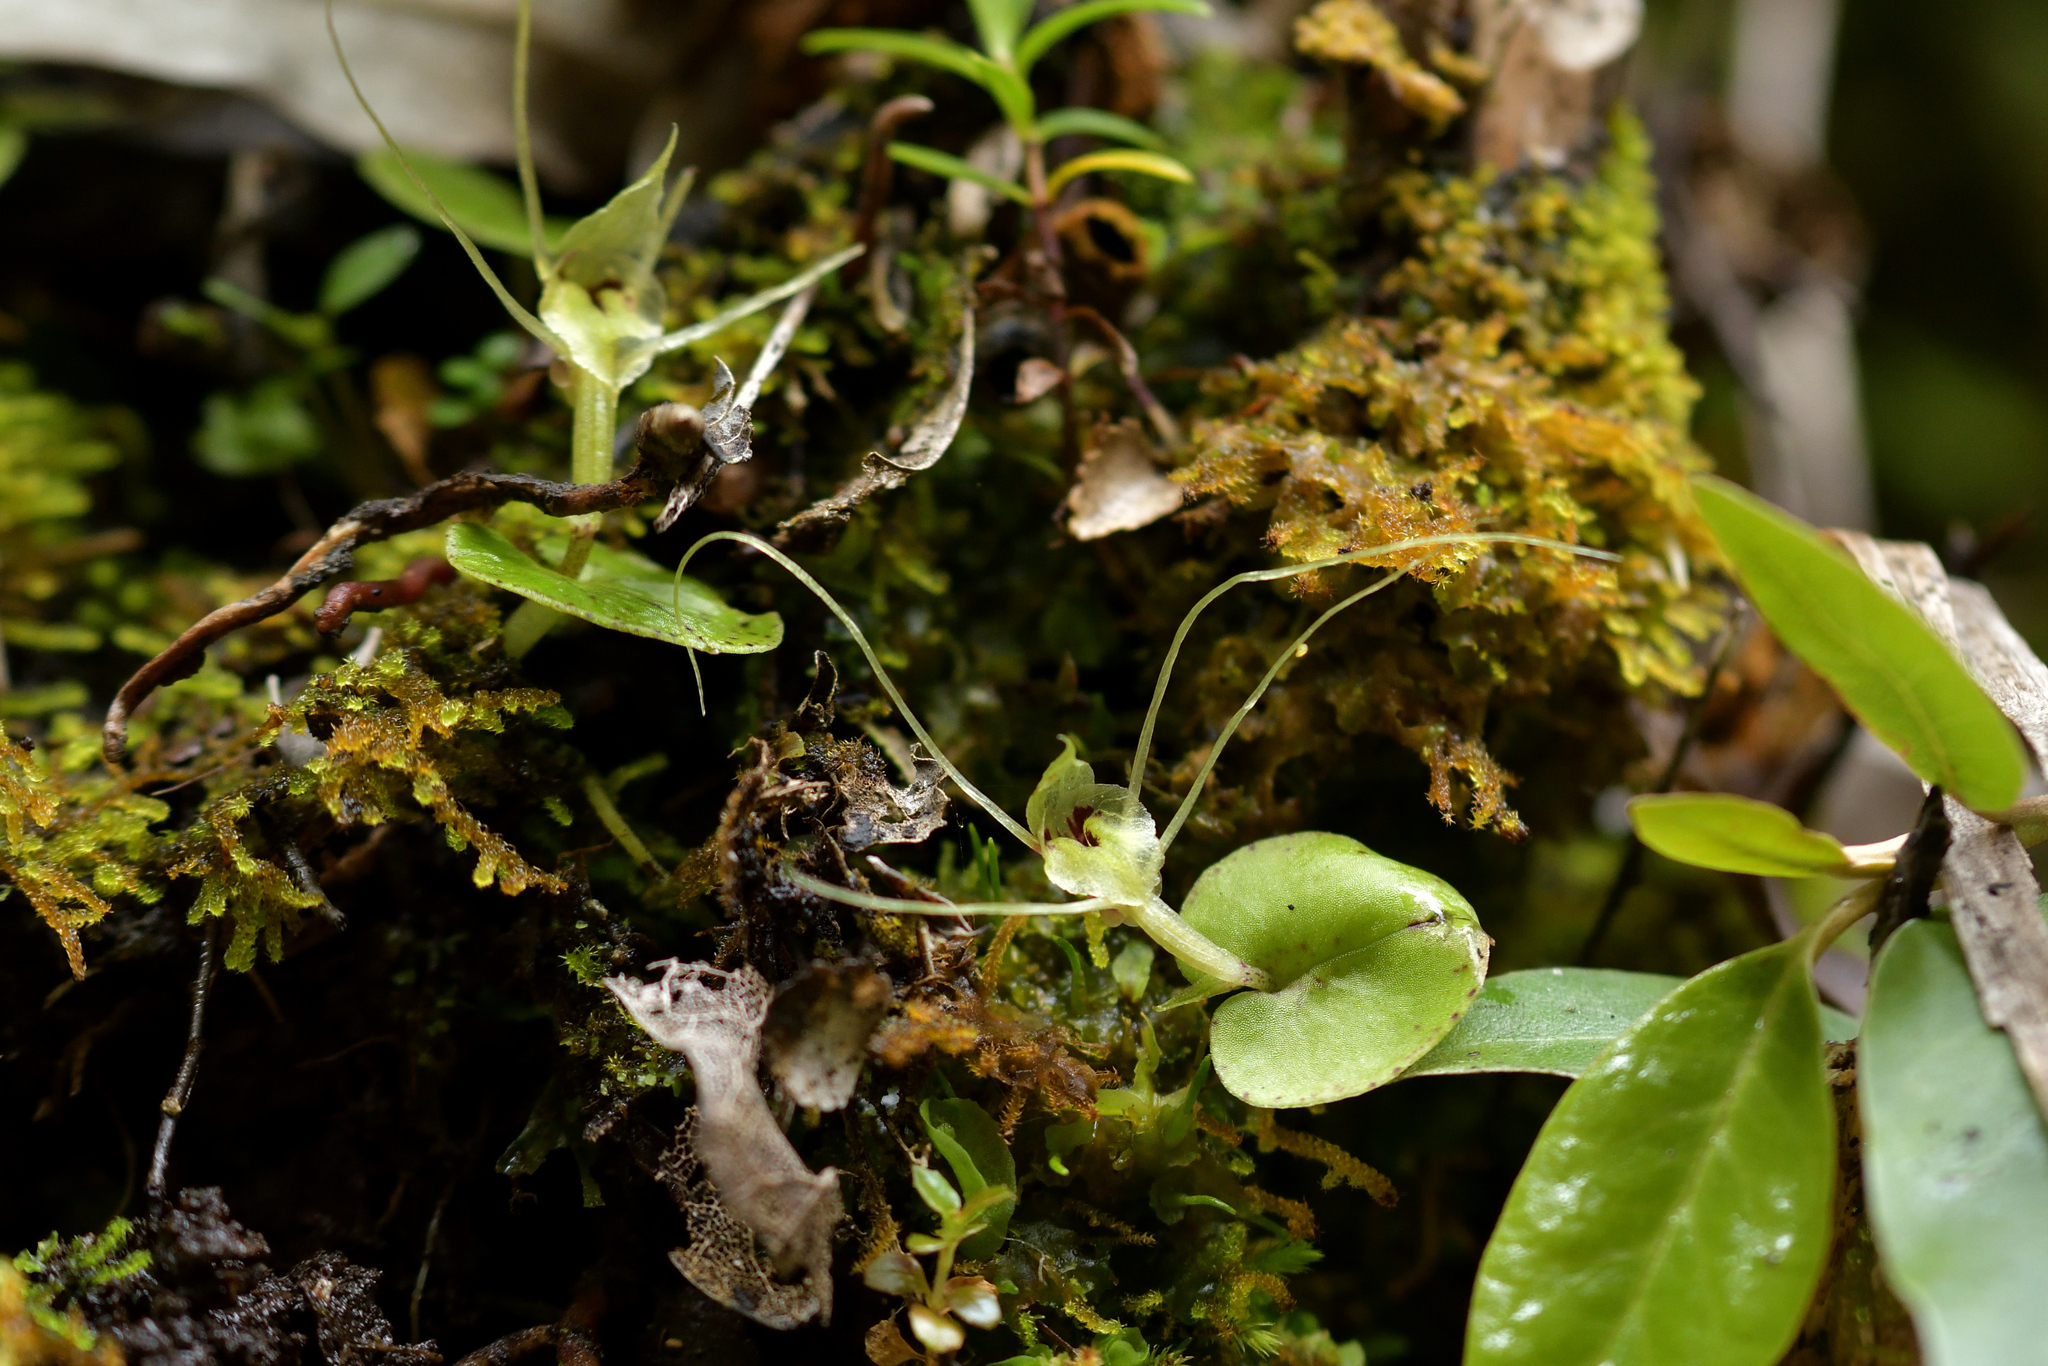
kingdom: Plantae
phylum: Tracheophyta
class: Liliopsida
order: Asparagales
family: Orchidaceae
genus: Corybas
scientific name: Corybas papa
